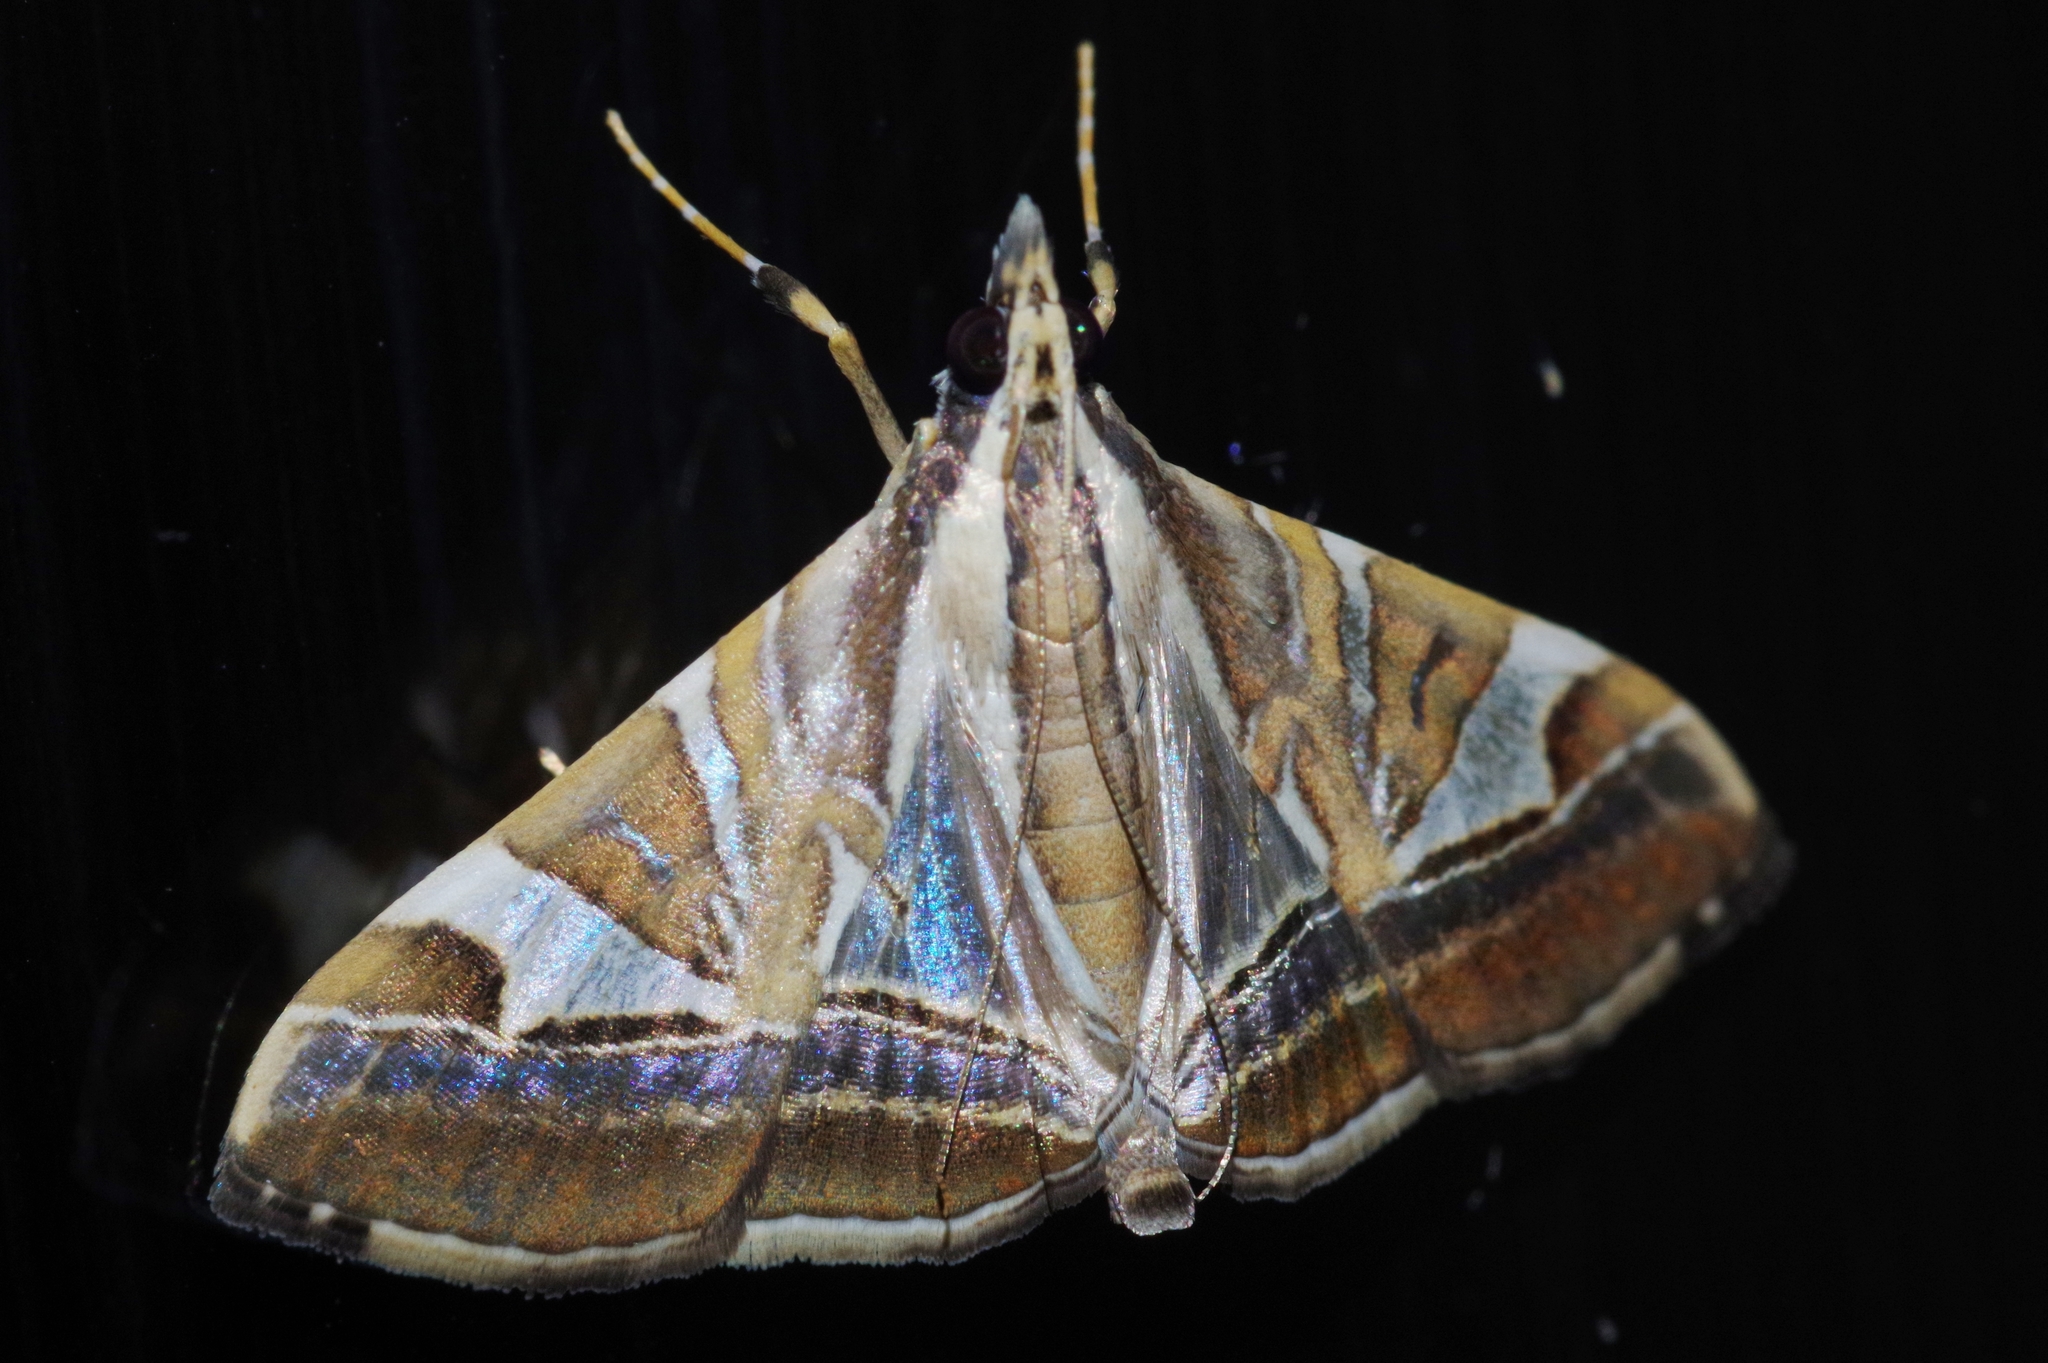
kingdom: Animalia
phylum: Arthropoda
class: Insecta
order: Lepidoptera
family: Crambidae
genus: Agrioglypta
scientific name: Agrioglypta itysalis
